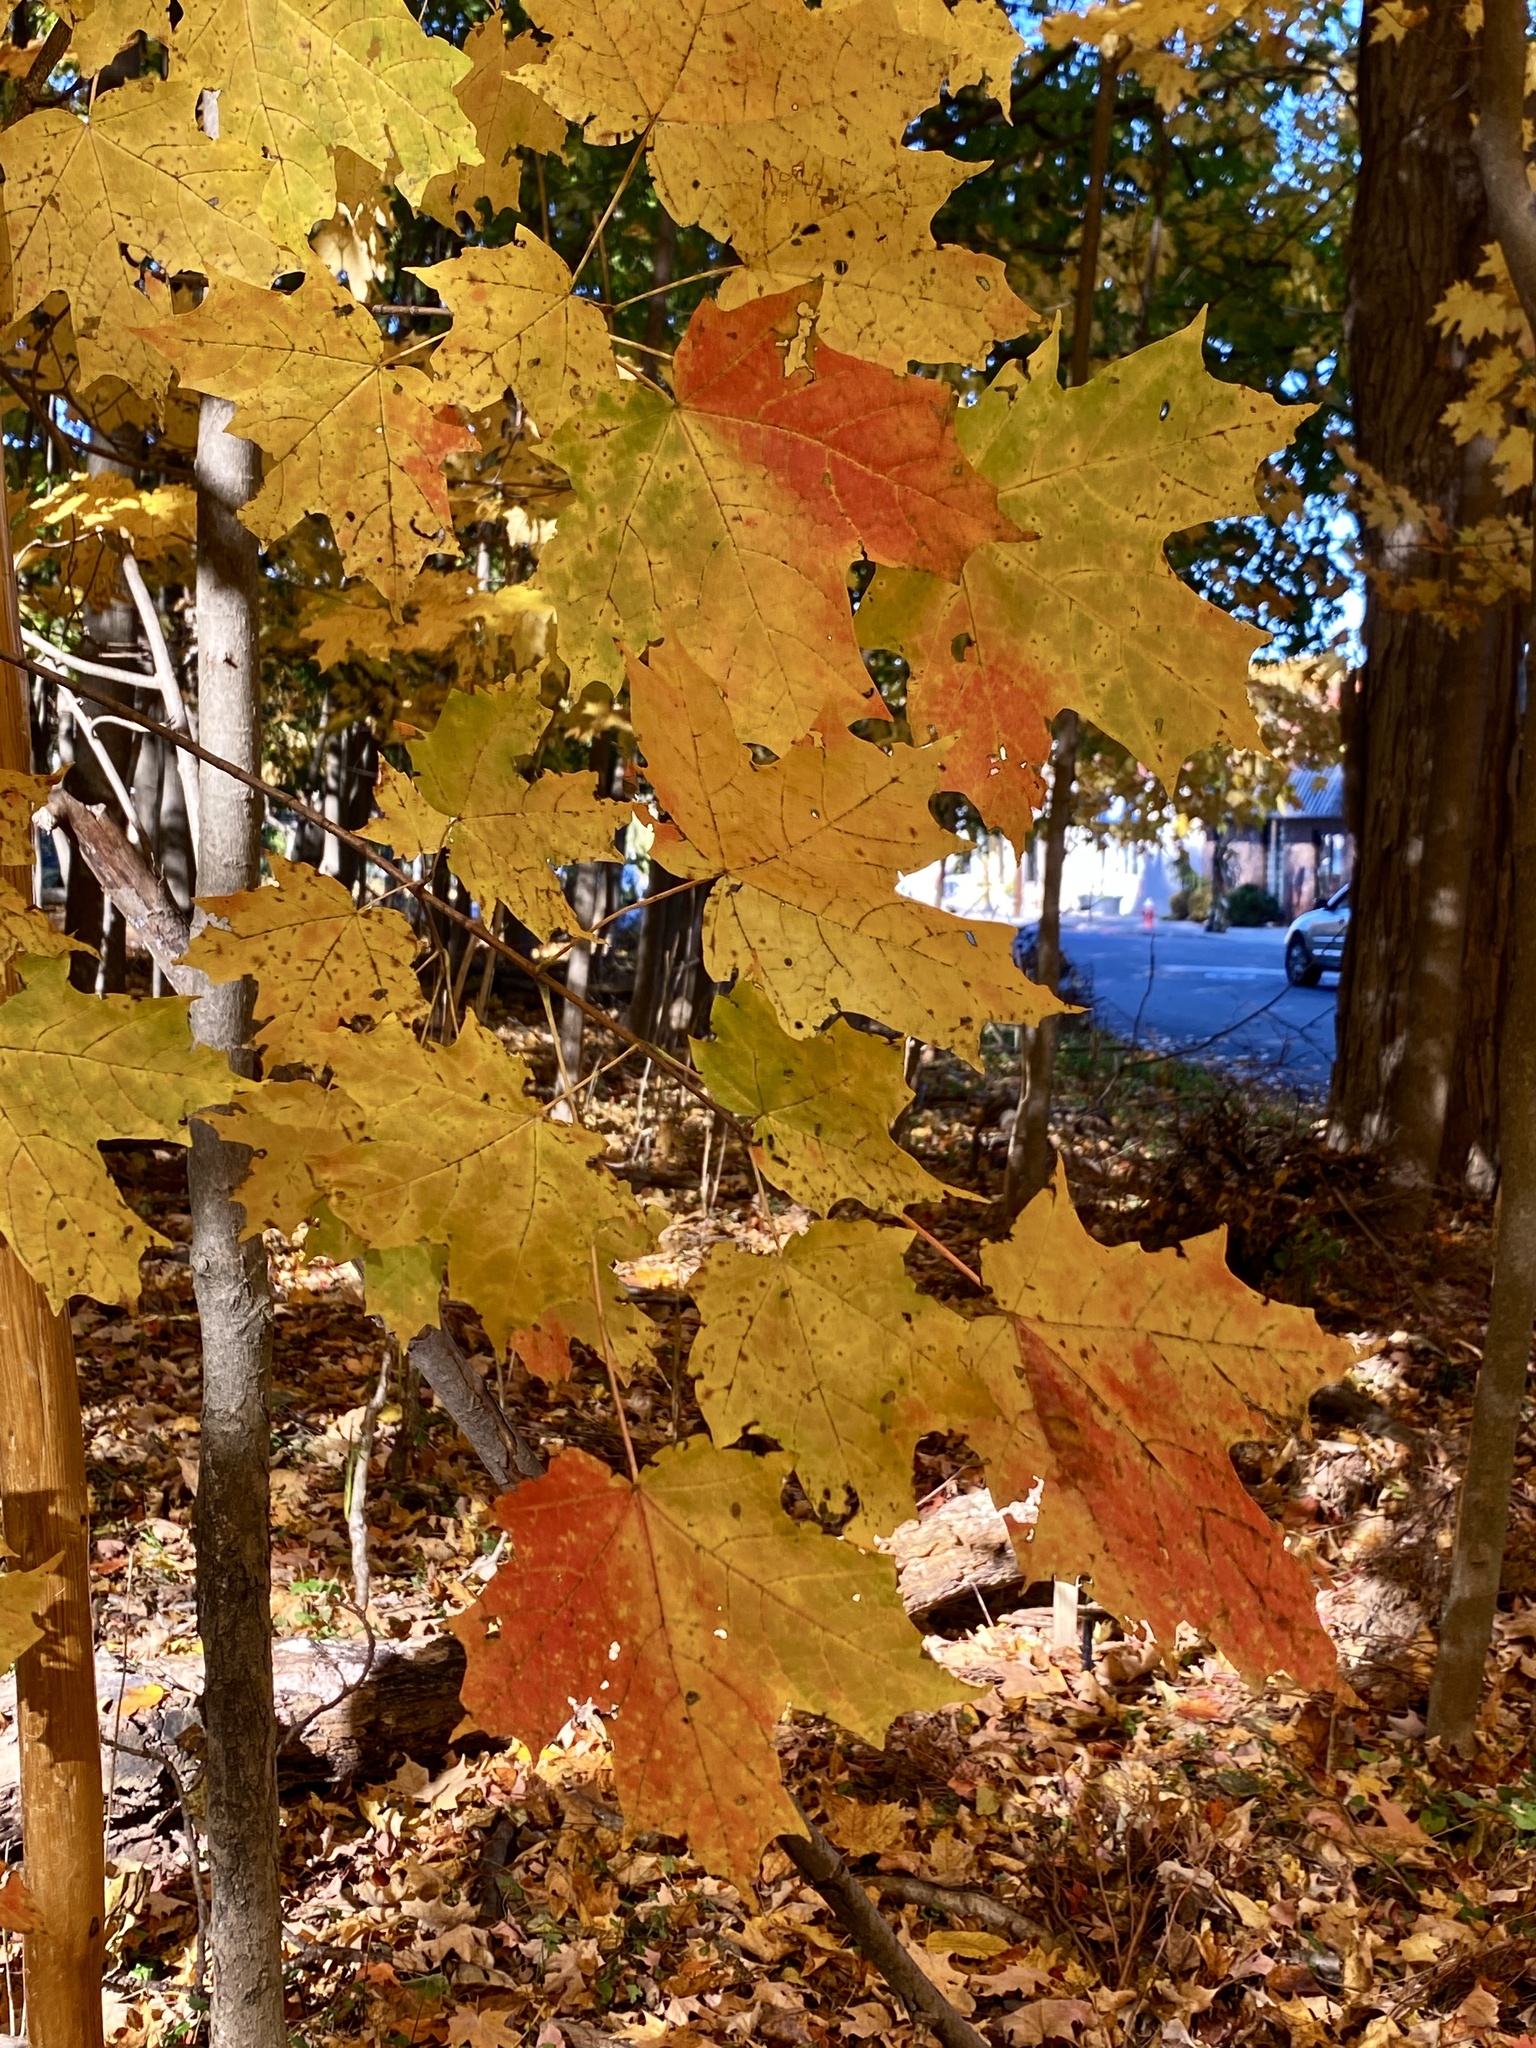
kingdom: Plantae
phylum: Tracheophyta
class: Magnoliopsida
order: Sapindales
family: Sapindaceae
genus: Acer
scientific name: Acer saccharum
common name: Sugar maple
